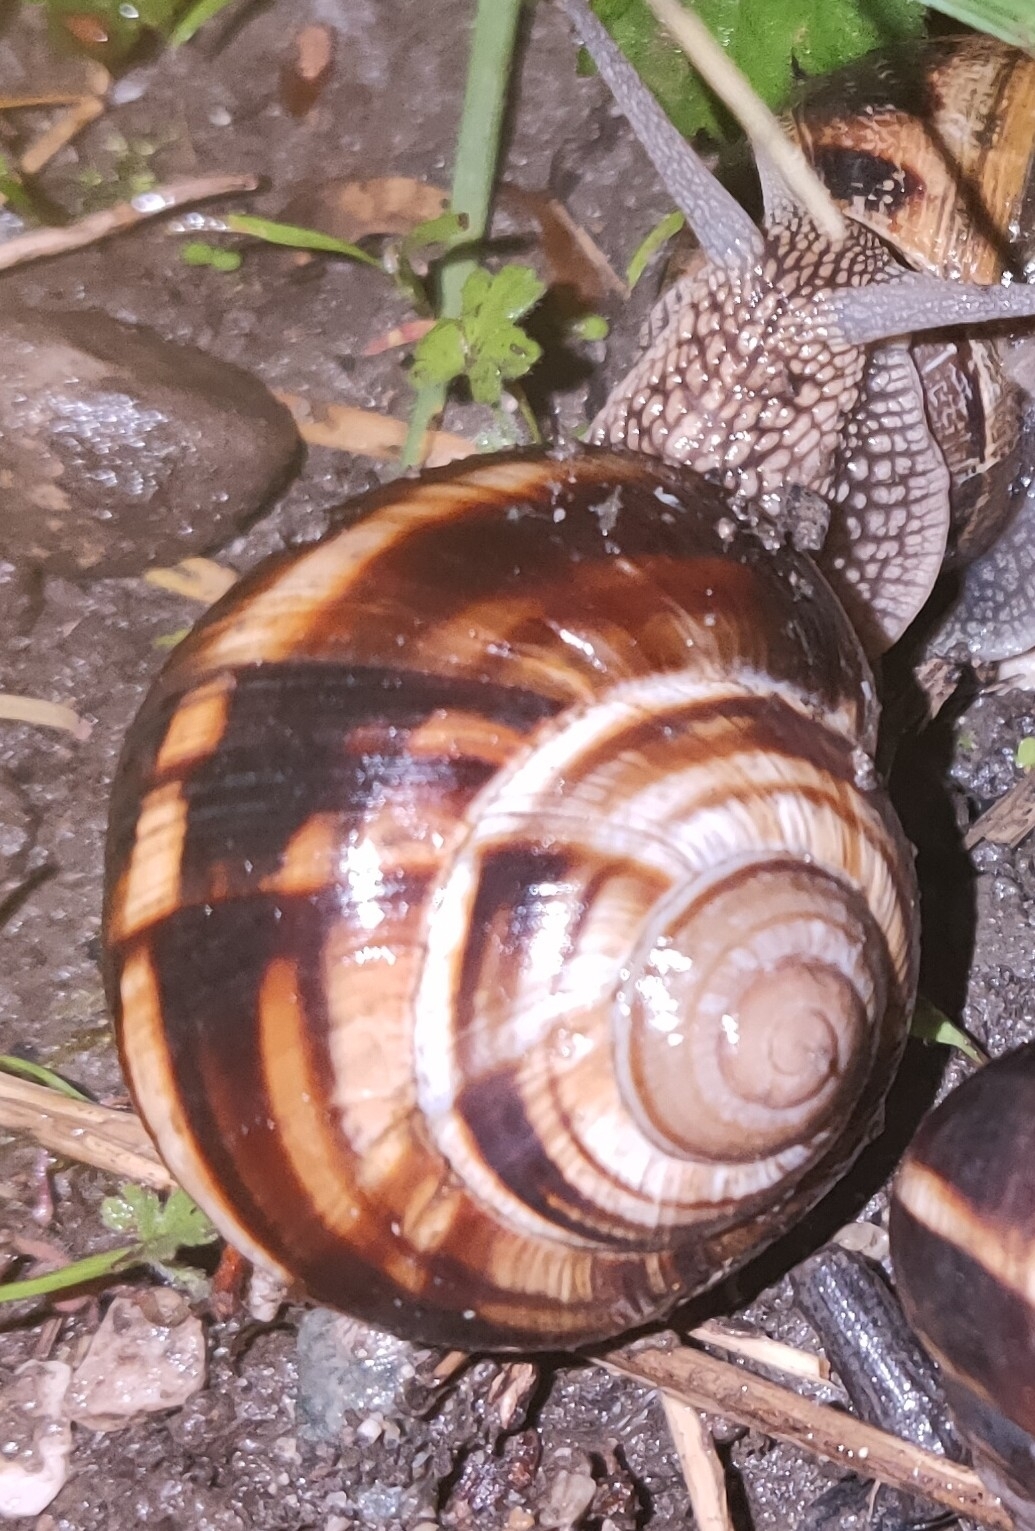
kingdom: Animalia
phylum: Mollusca
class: Gastropoda
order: Stylommatophora
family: Helicidae
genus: Helix
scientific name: Helix lucorum
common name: Turkish snail
